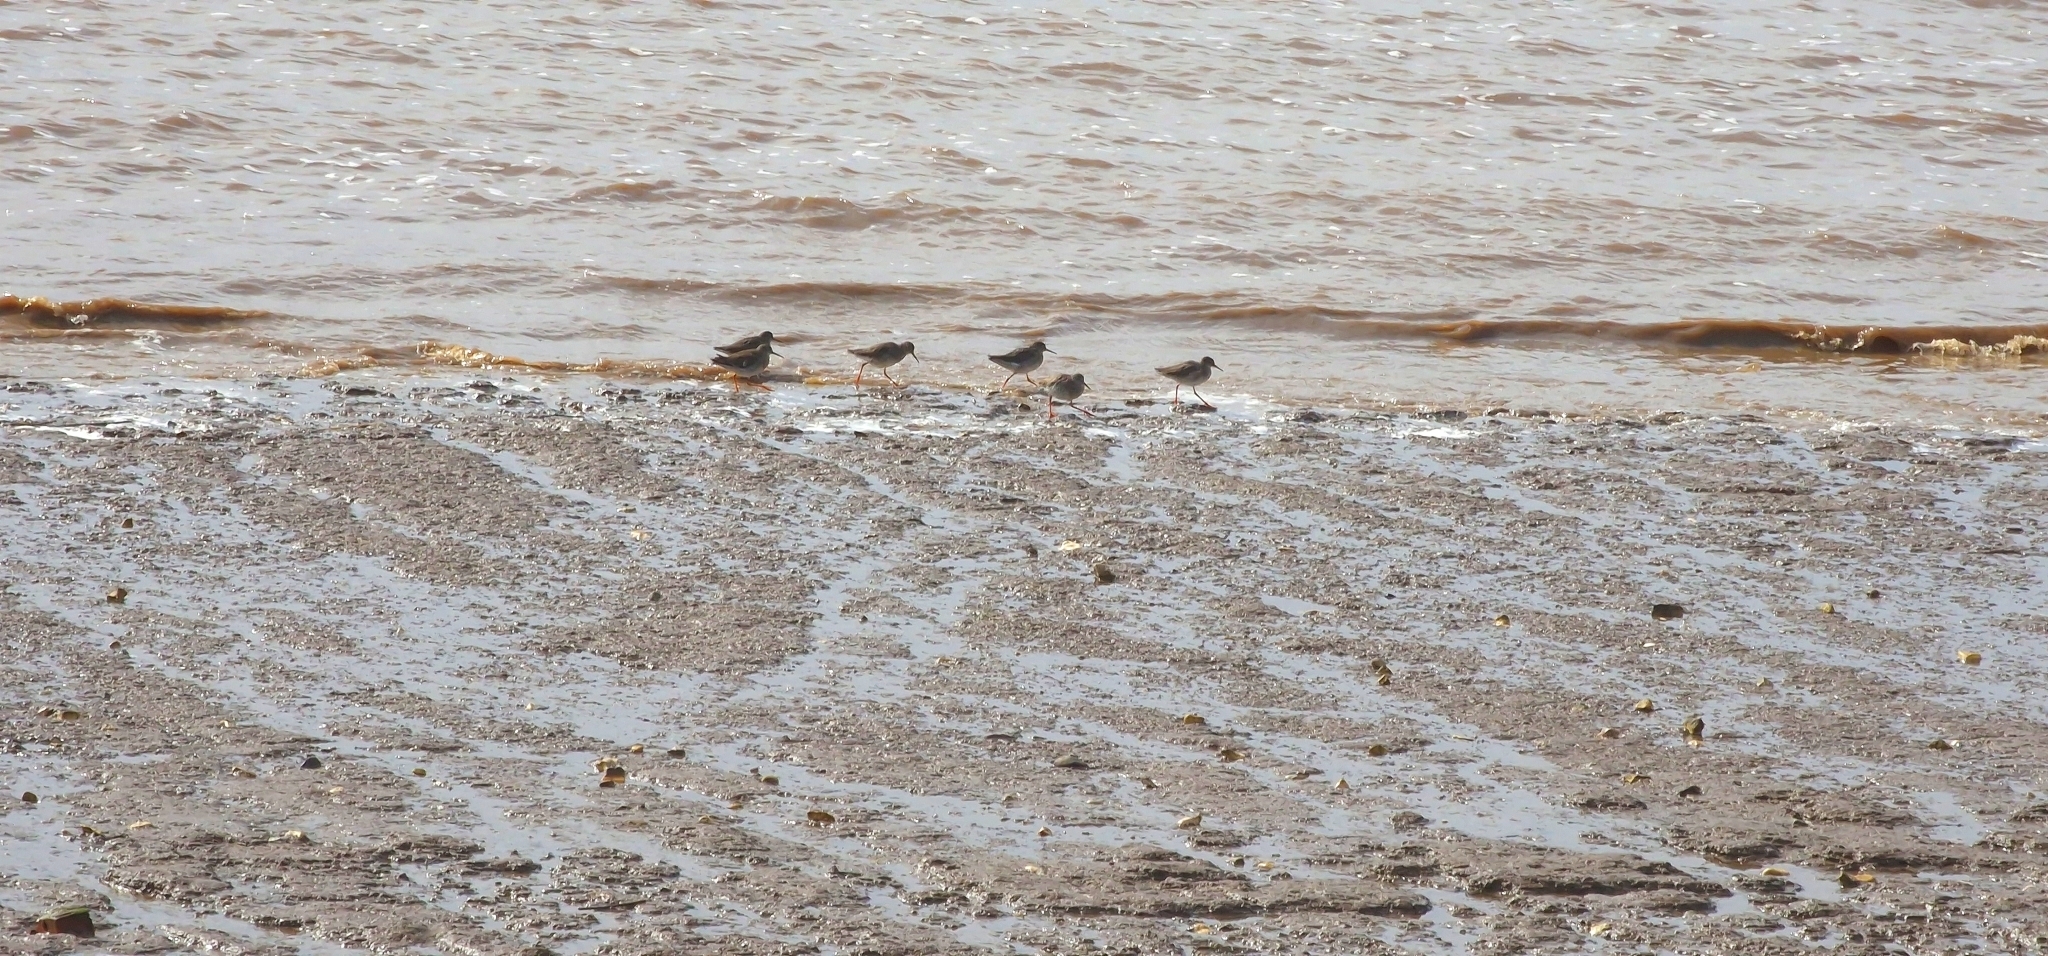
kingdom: Animalia
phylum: Chordata
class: Aves
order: Charadriiformes
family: Scolopacidae
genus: Tringa
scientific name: Tringa totanus
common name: Common redshank
